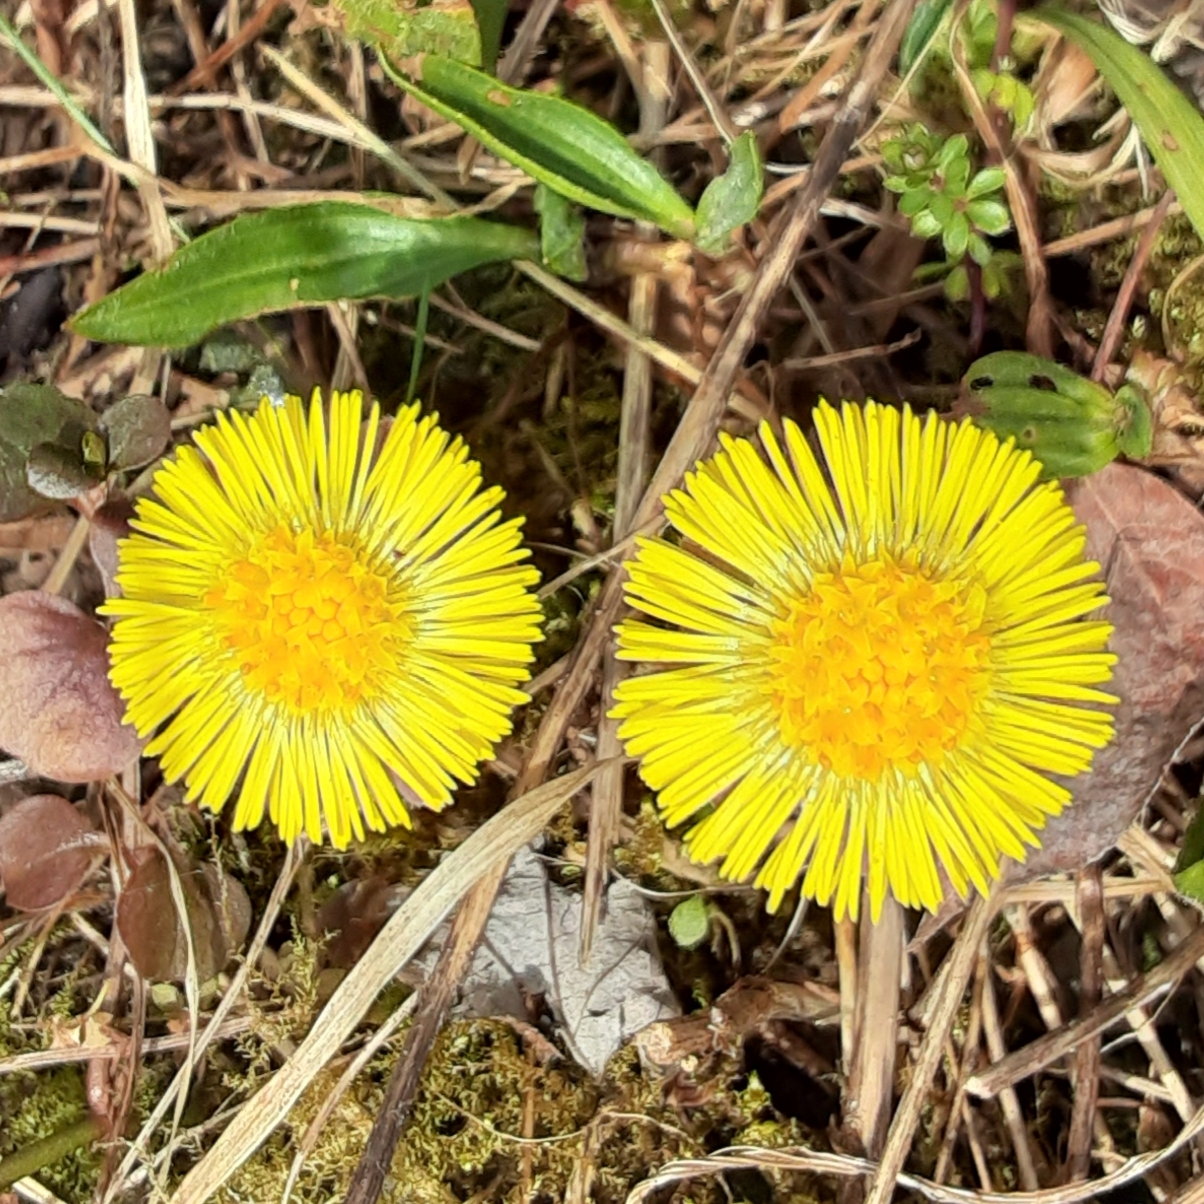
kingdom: Plantae
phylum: Tracheophyta
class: Magnoliopsida
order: Asterales
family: Asteraceae
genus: Tussilago
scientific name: Tussilago farfara
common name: Coltsfoot
